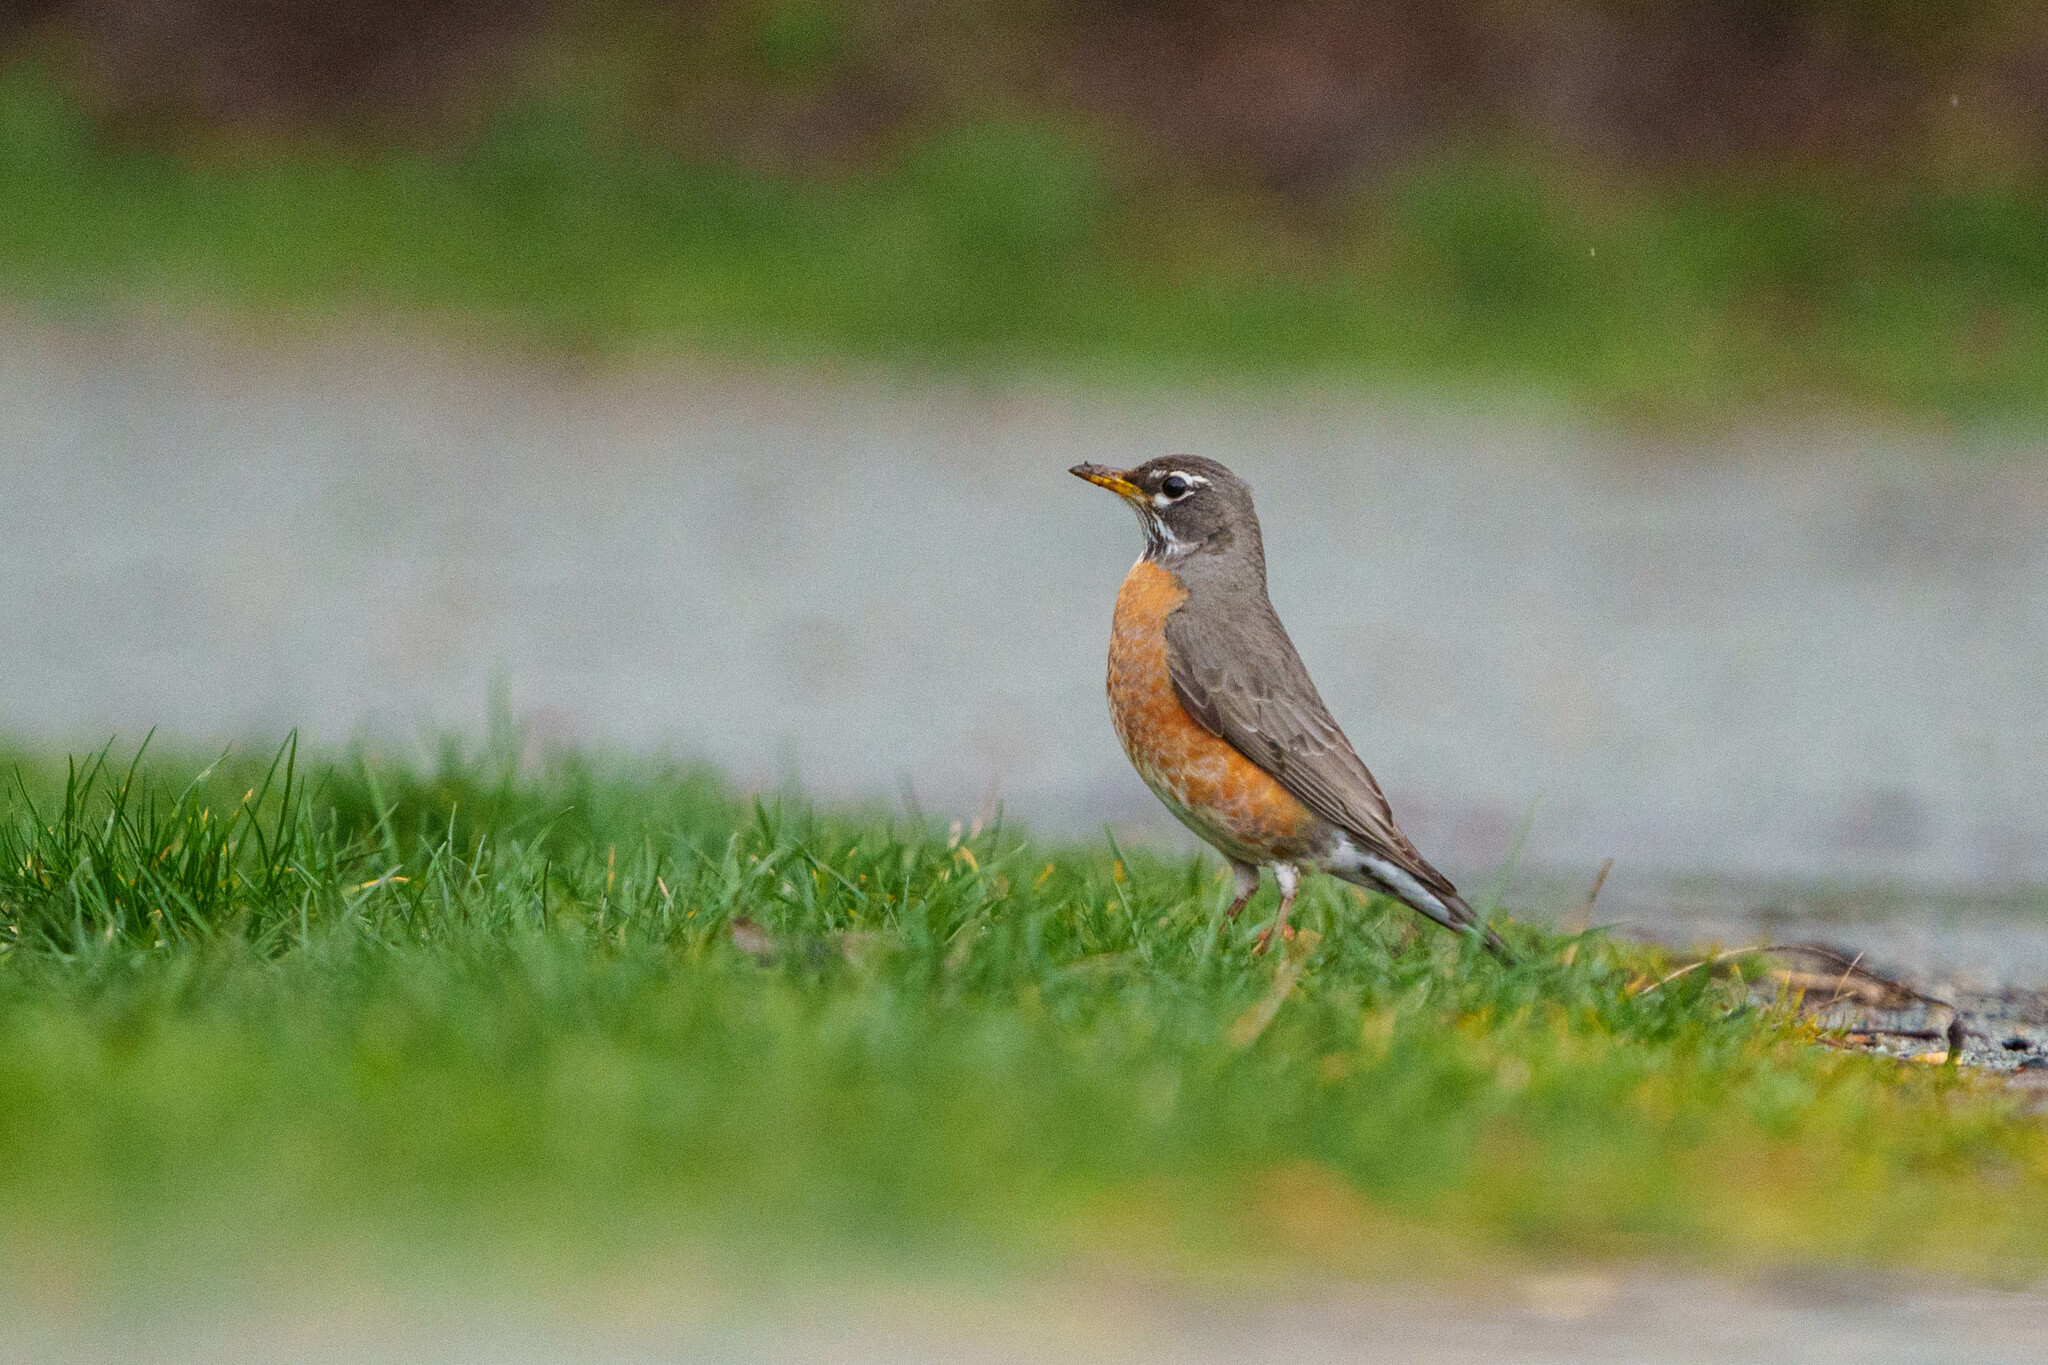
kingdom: Animalia
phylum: Chordata
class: Aves
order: Passeriformes
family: Turdidae
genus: Turdus
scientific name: Turdus migratorius
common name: American robin
